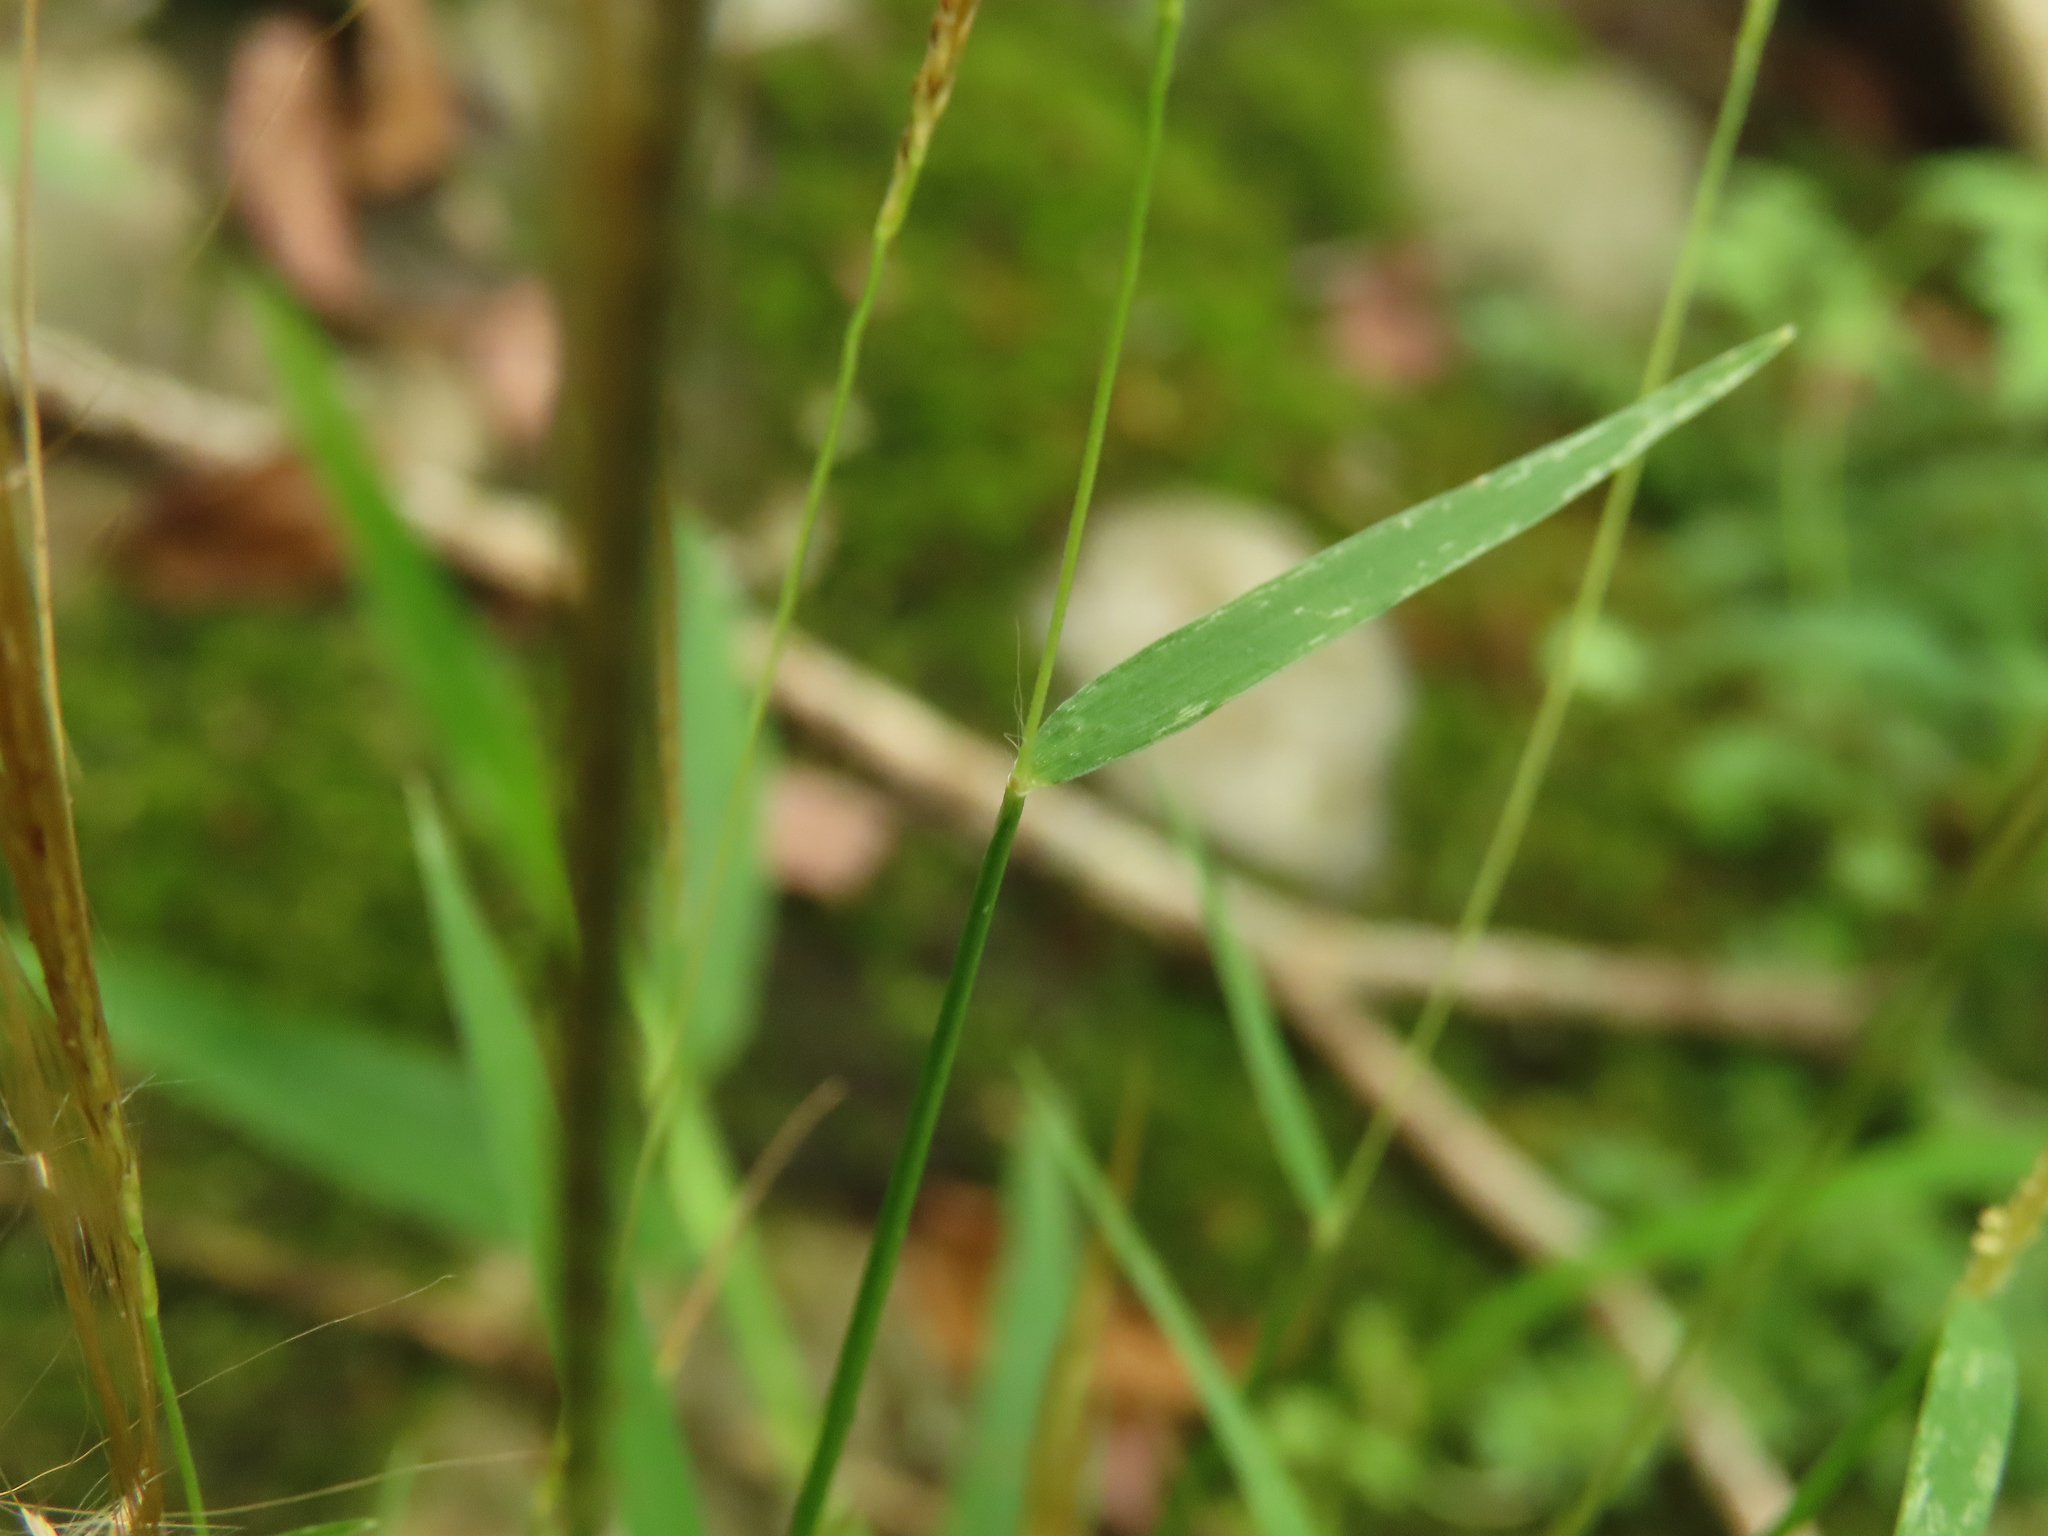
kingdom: Plantae
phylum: Tracheophyta
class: Liliopsida
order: Poales
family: Poaceae
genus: Pogonatherum
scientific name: Pogonatherum crinitum
